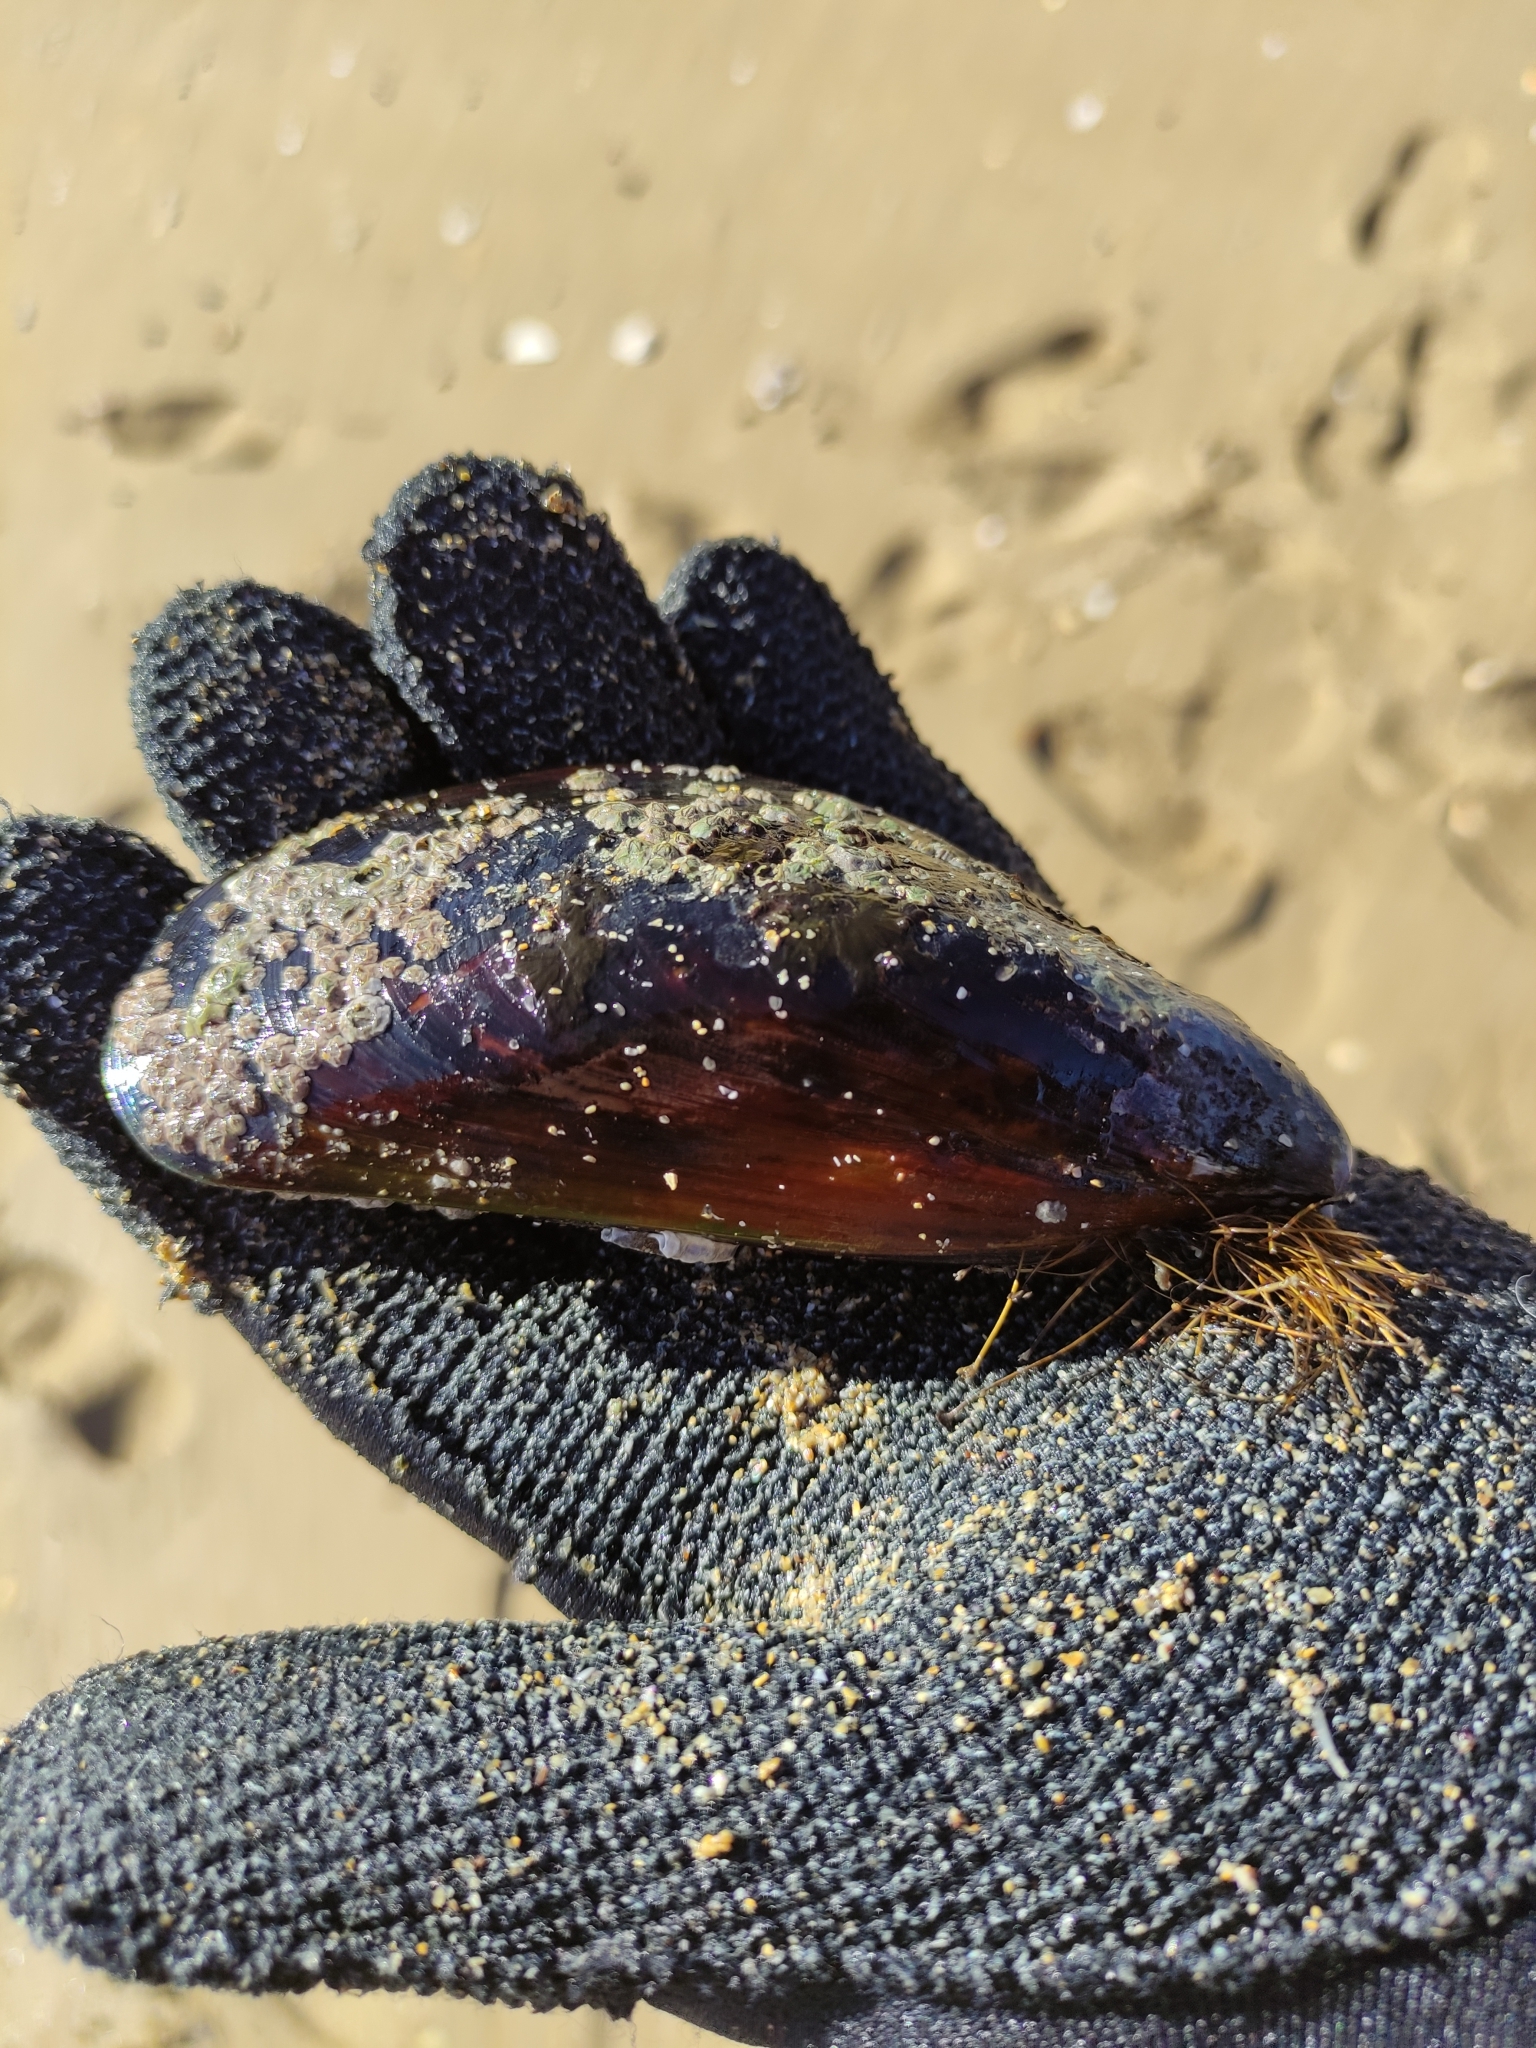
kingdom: Animalia
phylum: Mollusca
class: Bivalvia
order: Mytilida
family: Mytilidae
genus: Perna
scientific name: Perna canaliculus
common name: New zealand greenshelltm
